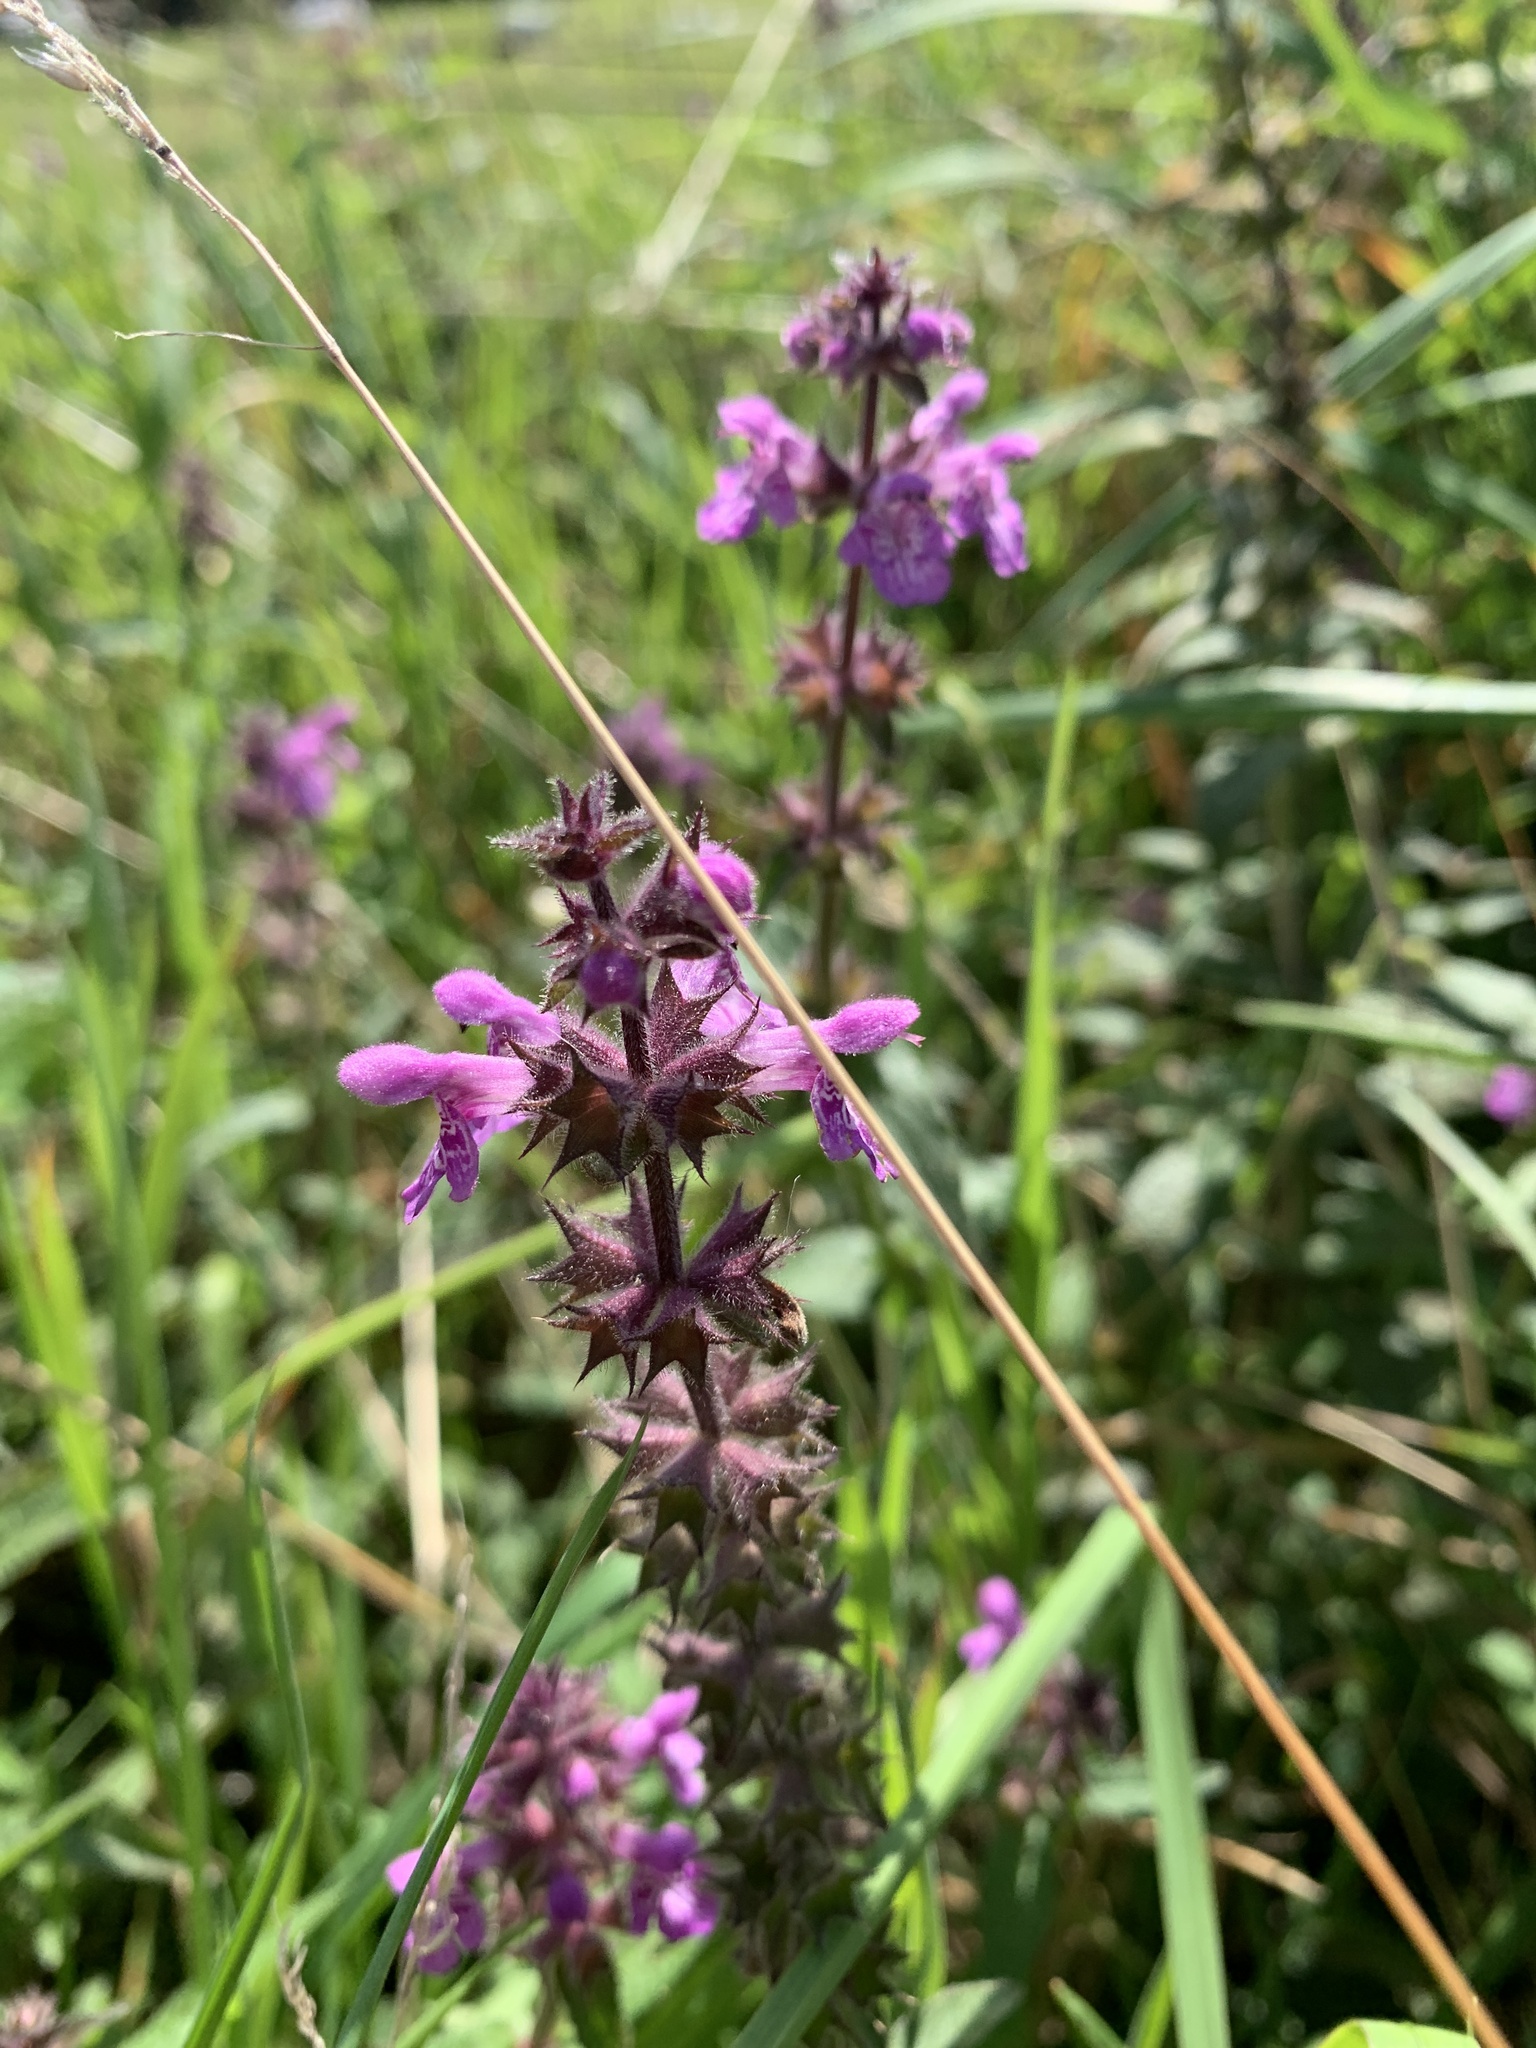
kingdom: Plantae
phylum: Tracheophyta
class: Magnoliopsida
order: Lamiales
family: Lamiaceae
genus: Stachys
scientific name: Stachys palustris
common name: Marsh woundwort
